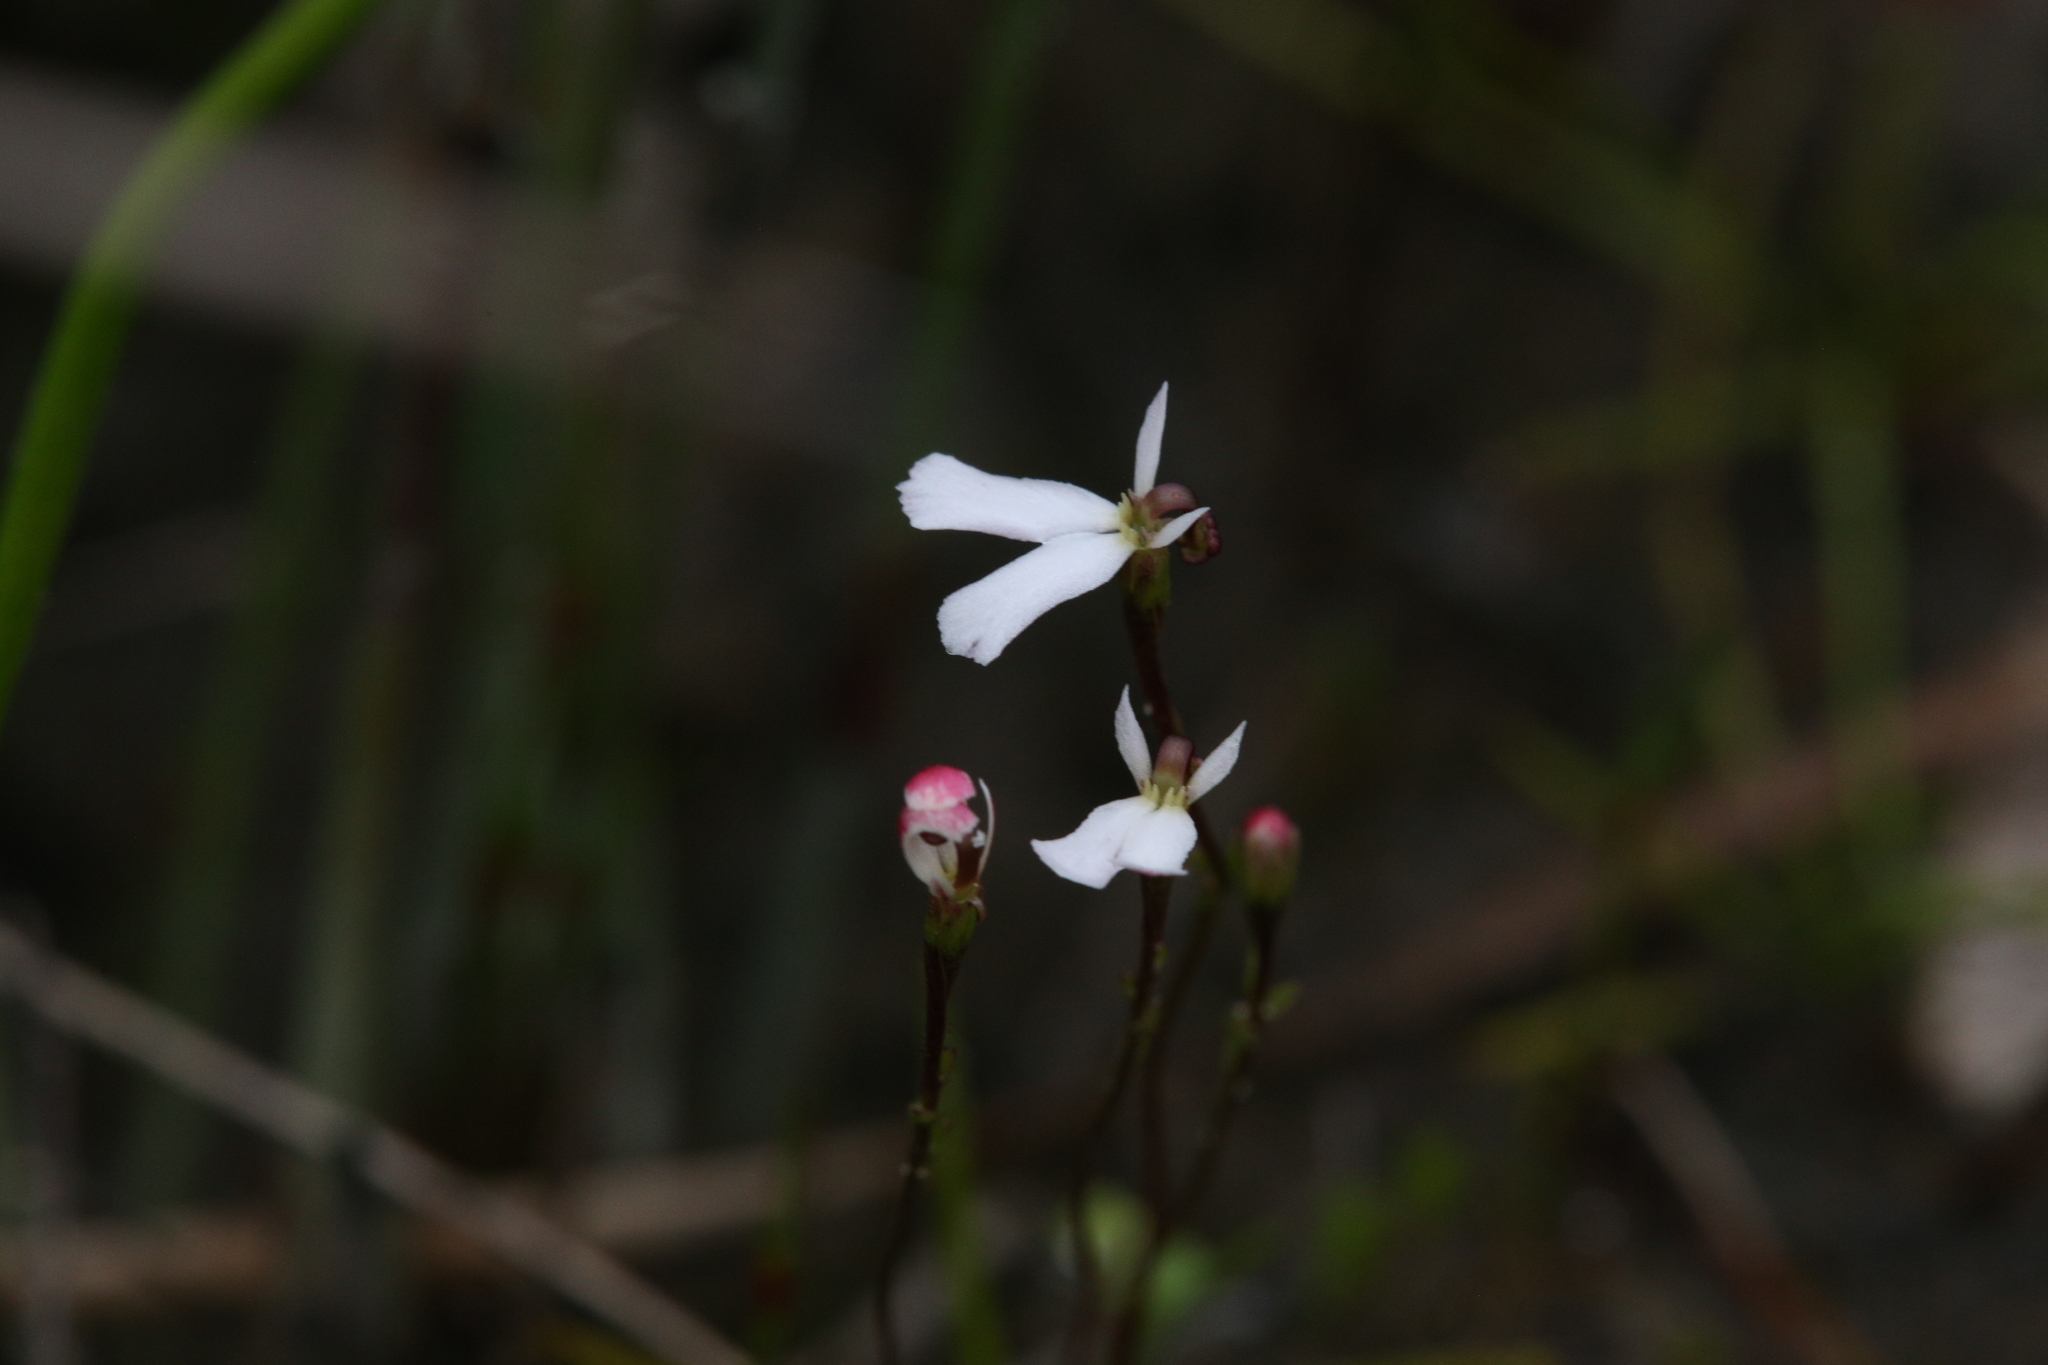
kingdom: Plantae
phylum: Tracheophyta
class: Magnoliopsida
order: Asterales
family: Stylidiaceae
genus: Stylidium
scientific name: Stylidium obtusatum
